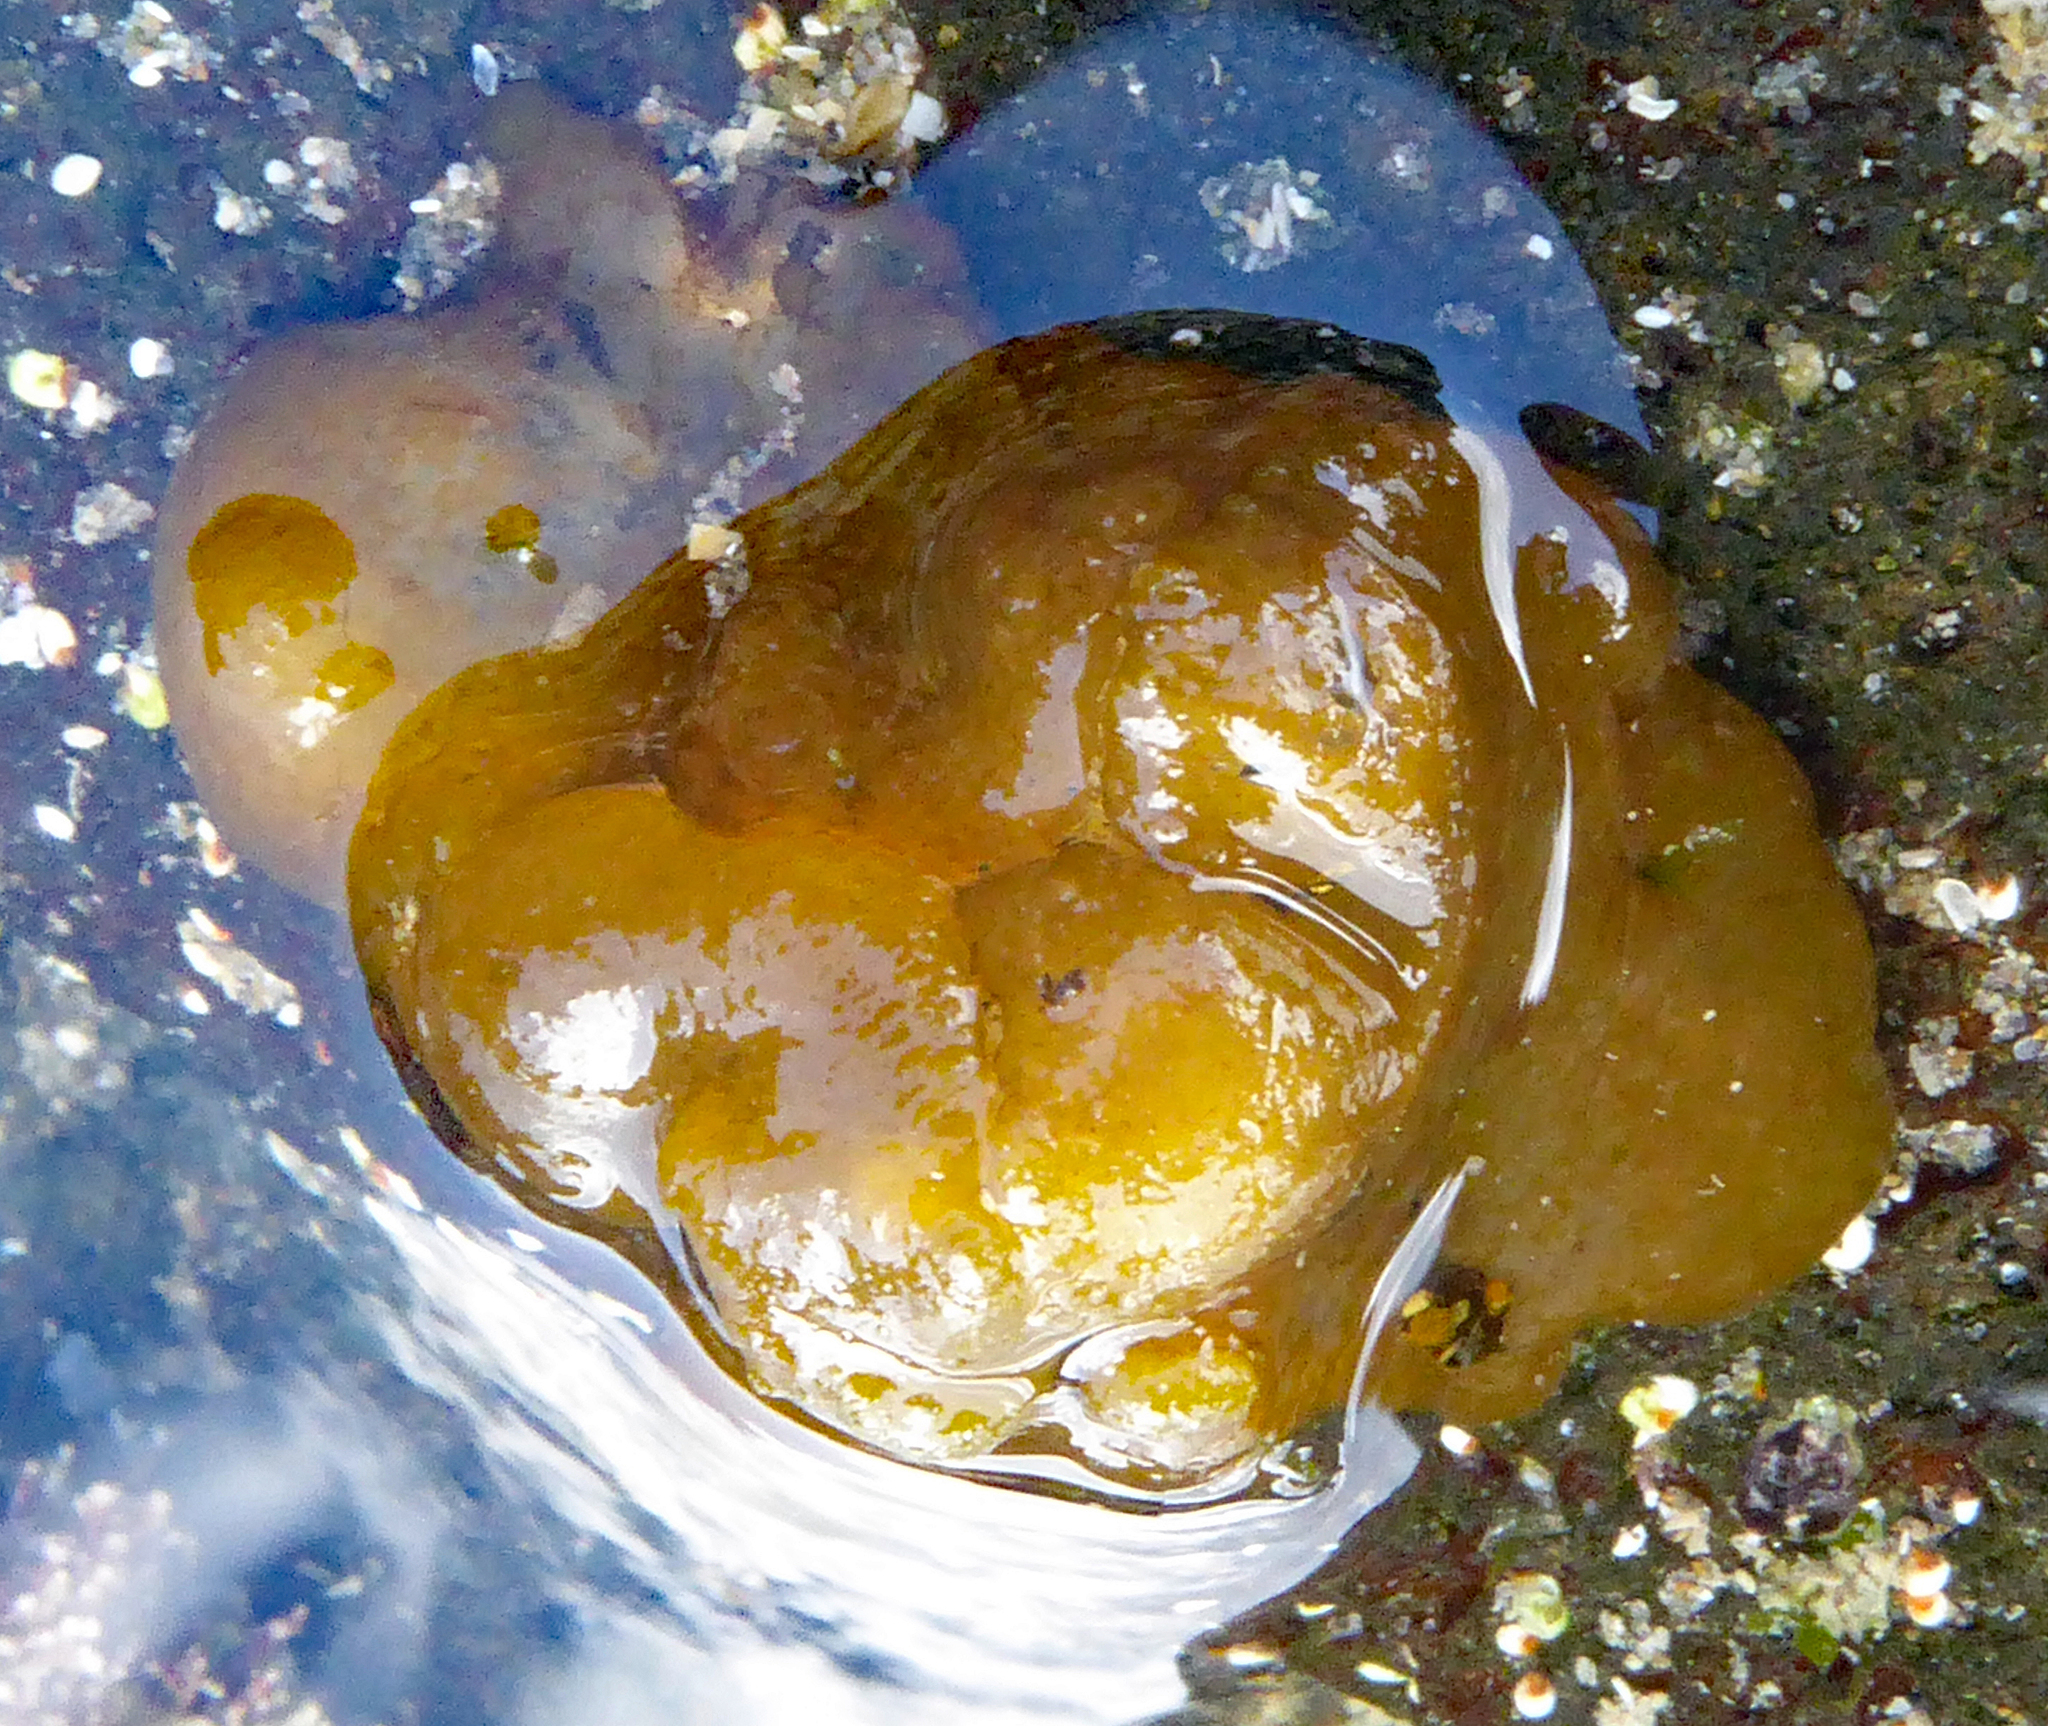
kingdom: Chromista
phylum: Ochrophyta
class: Phaeophyceae
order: Scytosiphonales
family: Scytosiphonaceae
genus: Colpomenia
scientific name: Colpomenia peregrina
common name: Oyster thief
